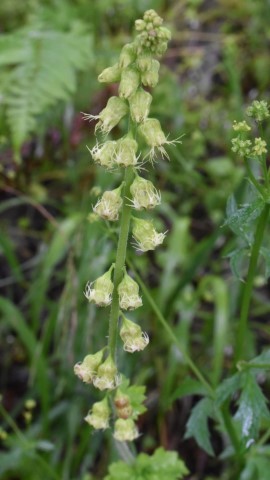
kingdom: Plantae
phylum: Tracheophyta
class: Magnoliopsida
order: Saxifragales
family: Saxifragaceae
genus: Tellima
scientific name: Tellima grandiflora
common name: Fringecups
